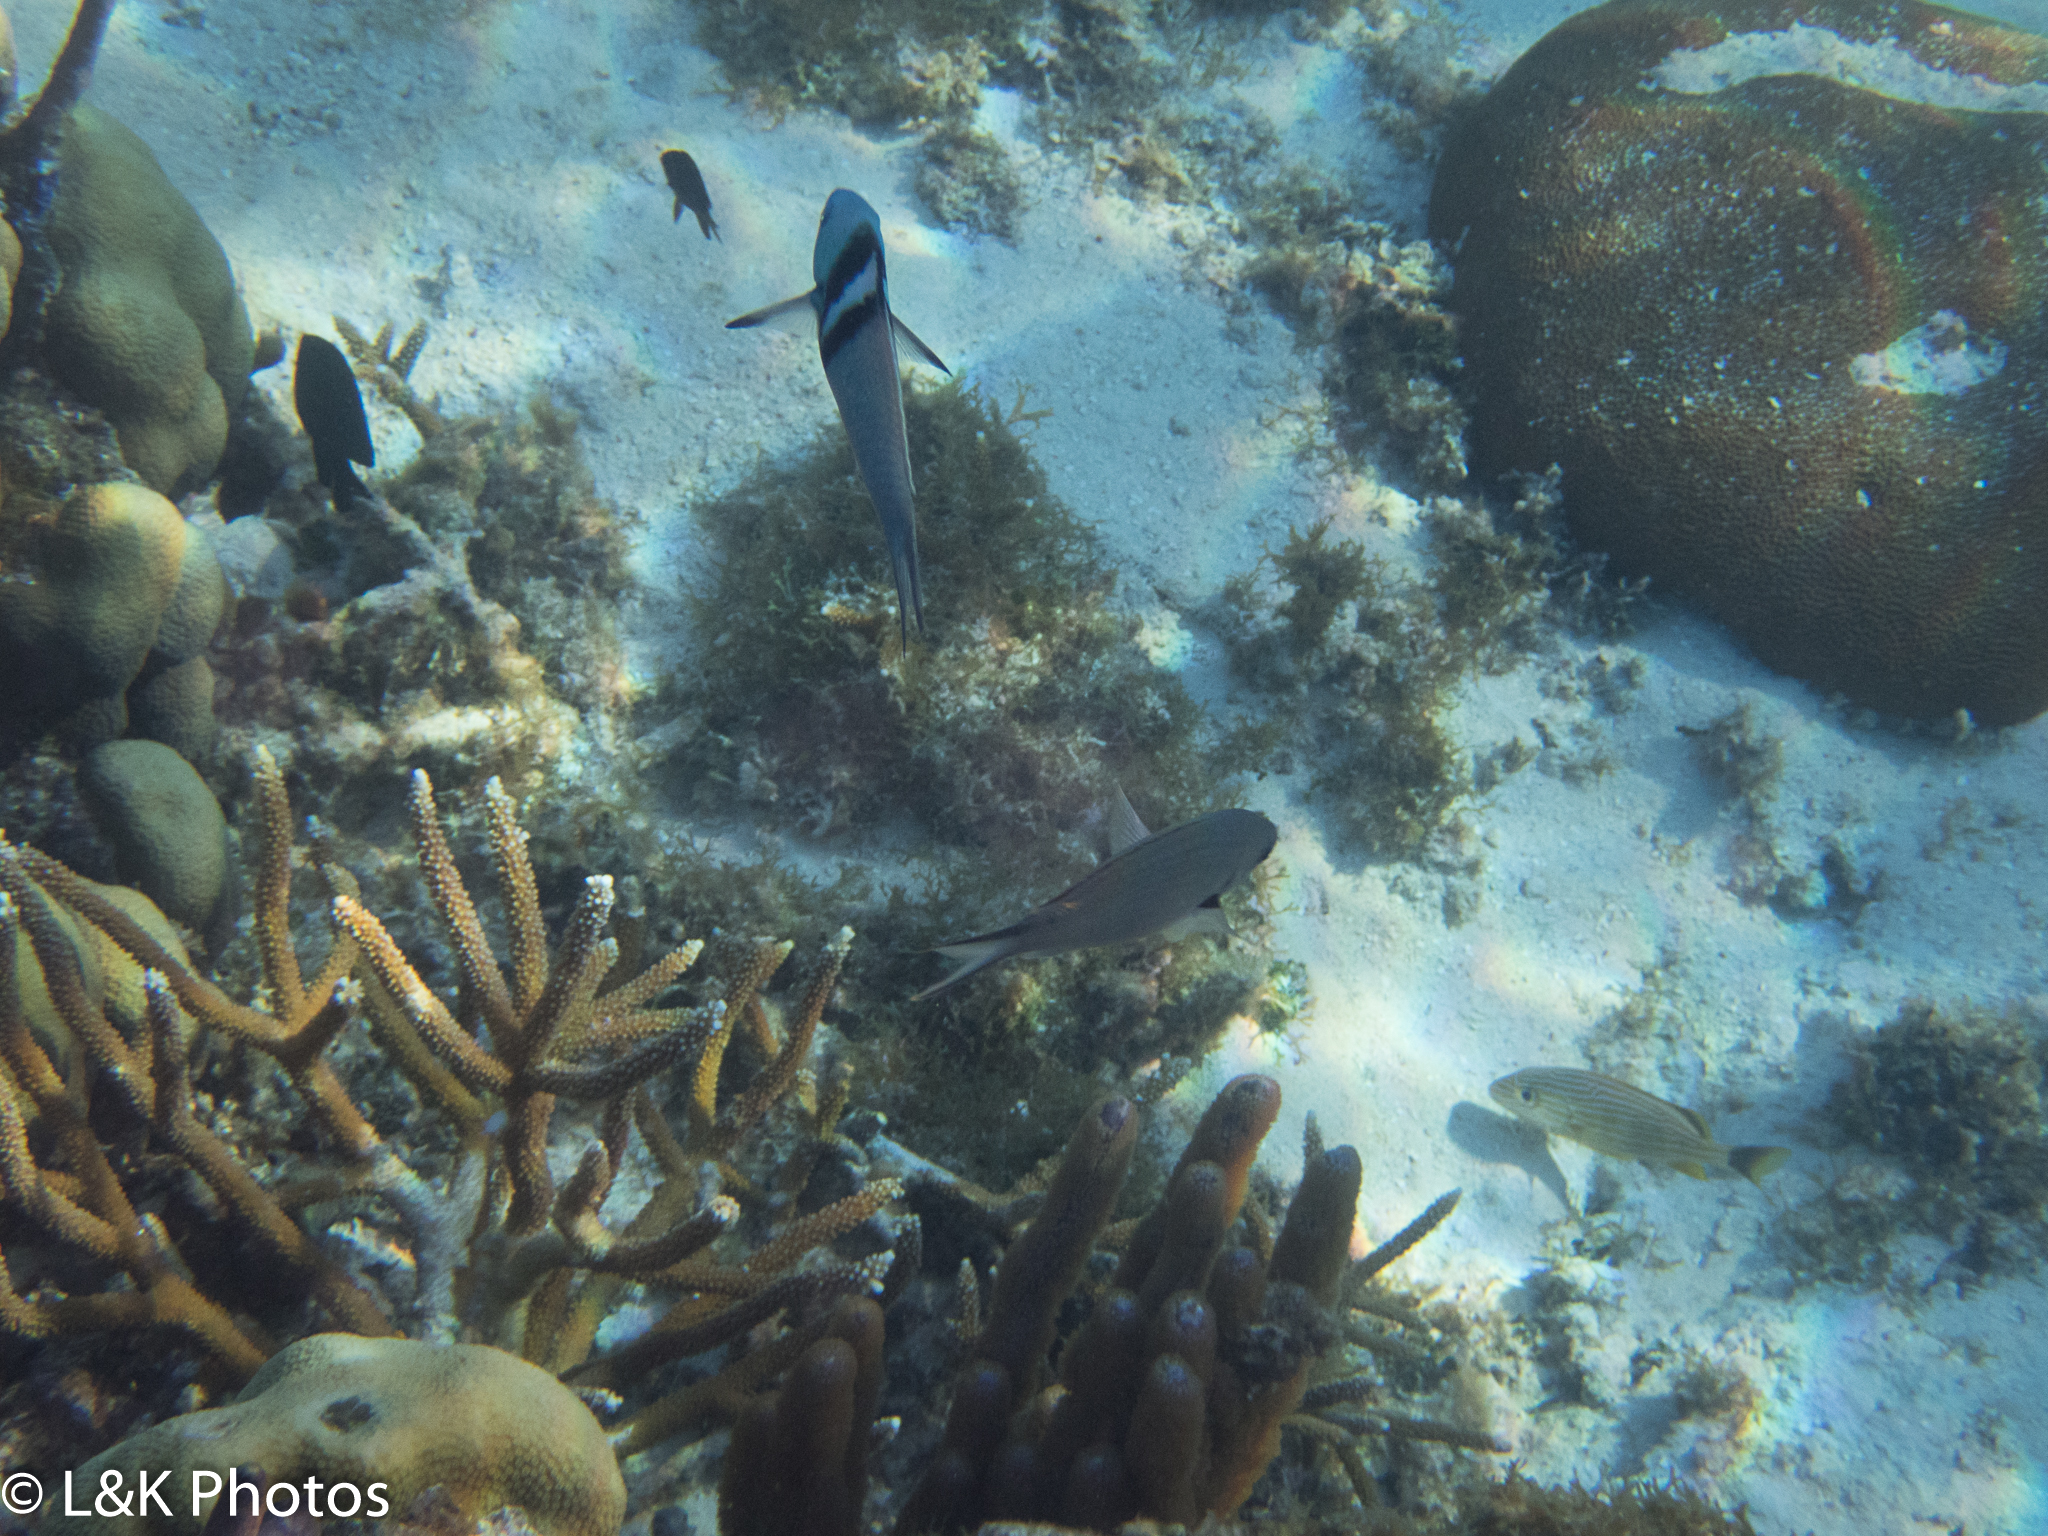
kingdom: Animalia
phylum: Chordata
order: Perciformes
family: Labridae
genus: Thalassoma
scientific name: Thalassoma bifasciatum
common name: Bluehead wrasse
